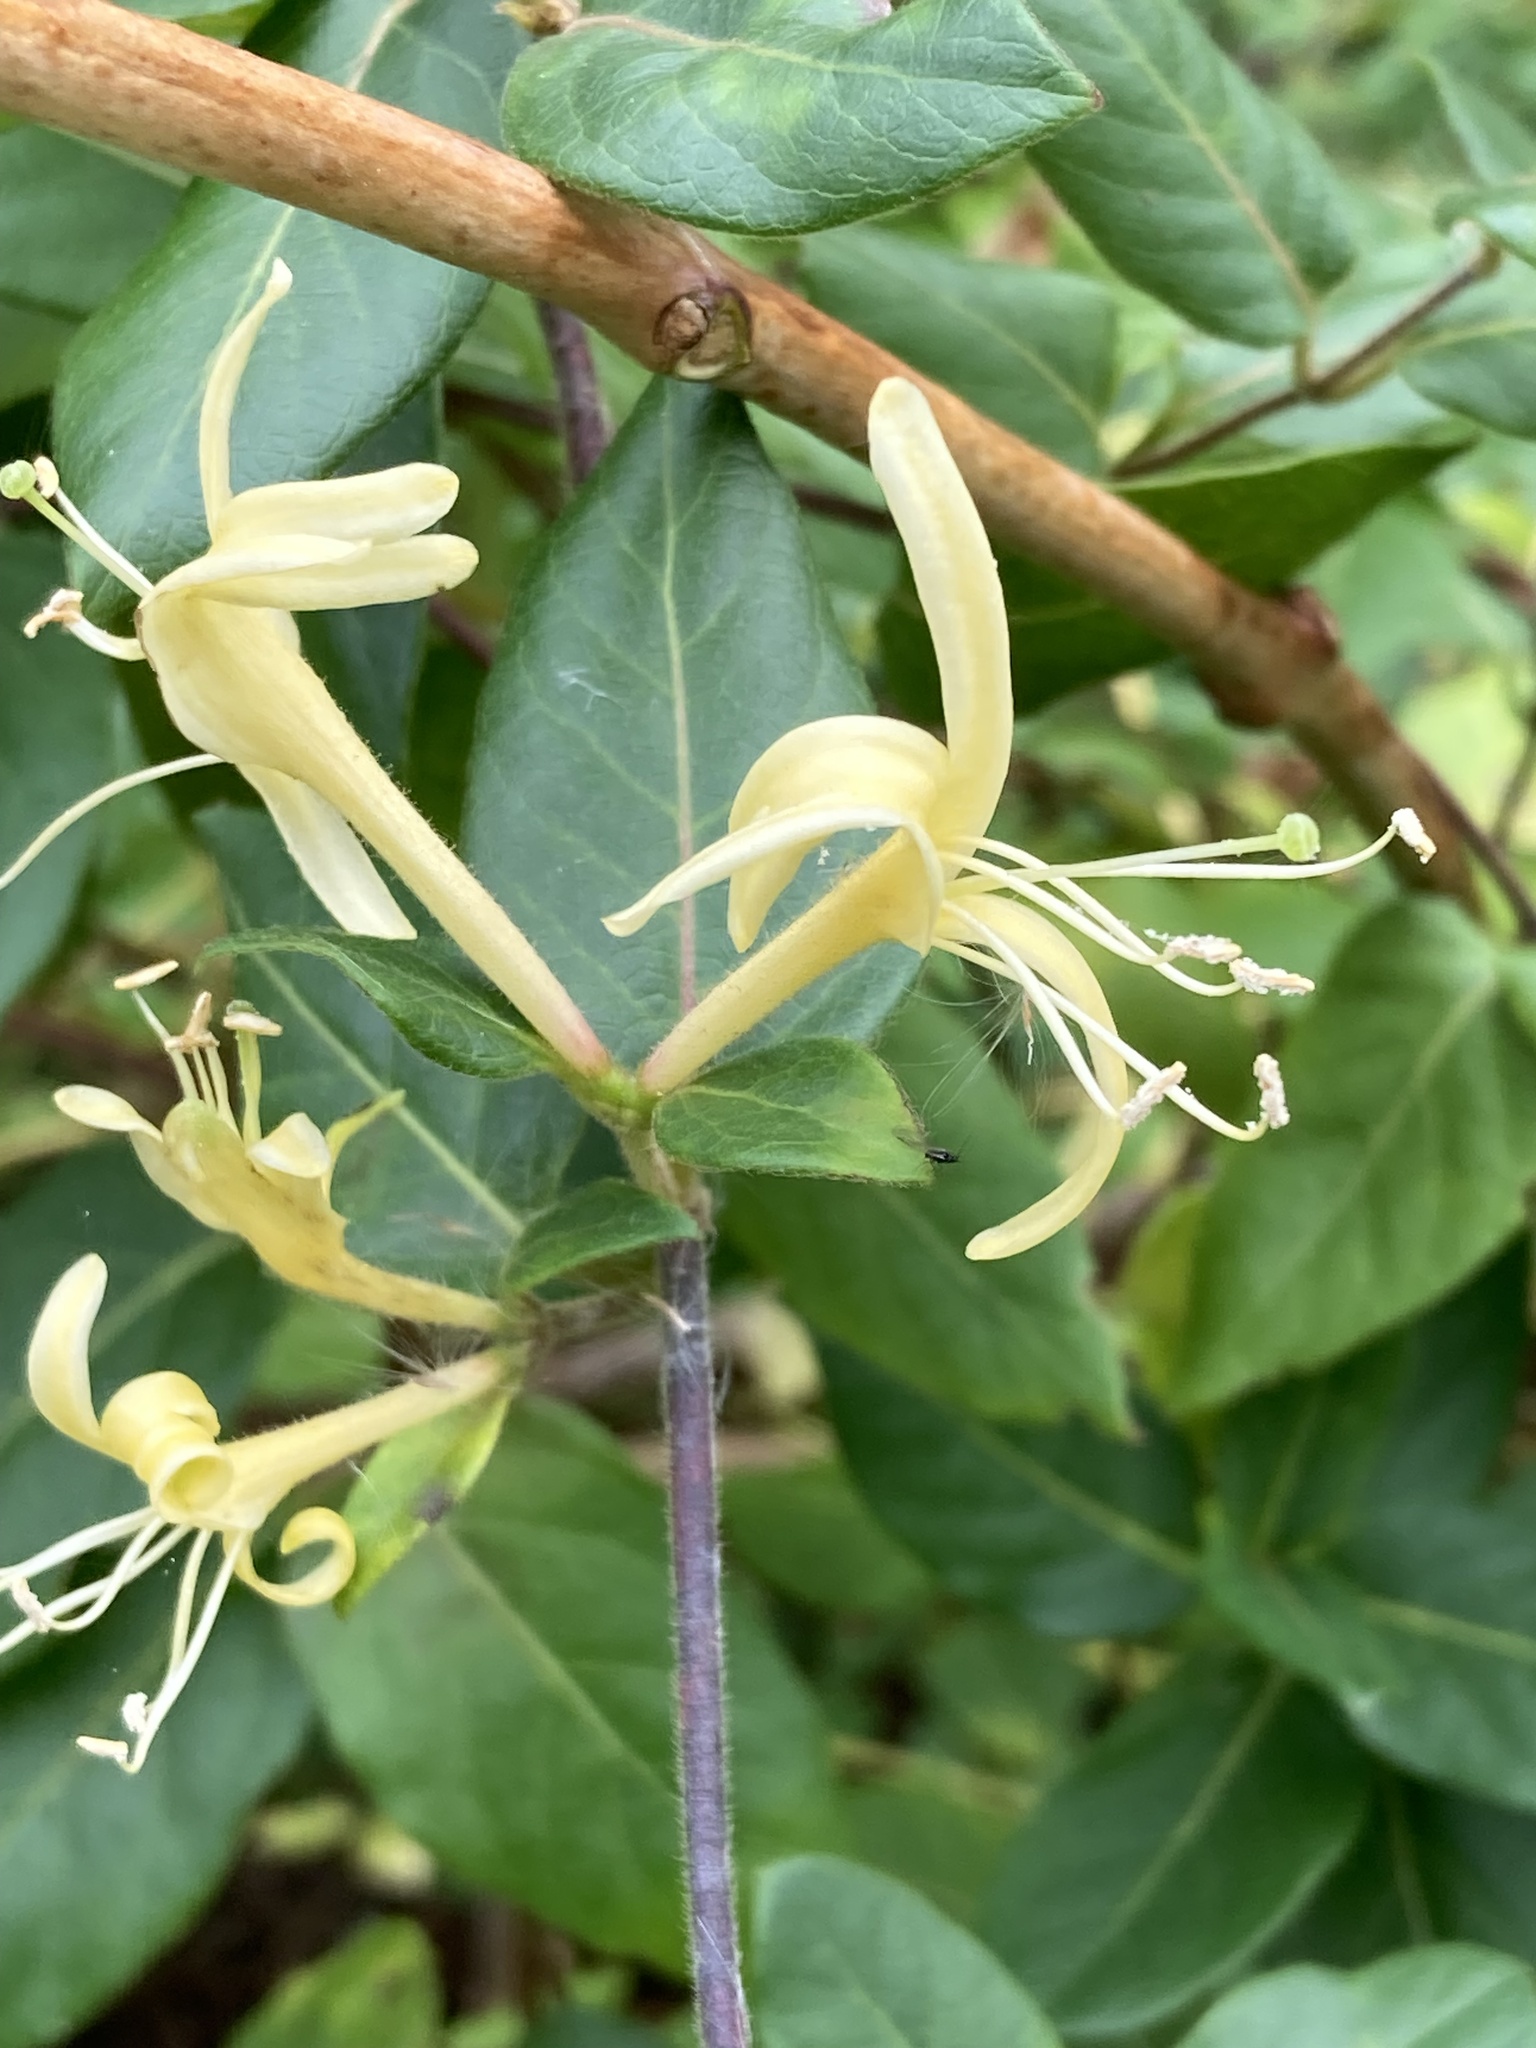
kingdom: Plantae
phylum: Tracheophyta
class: Magnoliopsida
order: Dipsacales
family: Caprifoliaceae
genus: Lonicera
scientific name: Lonicera japonica
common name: Japanese honeysuckle
